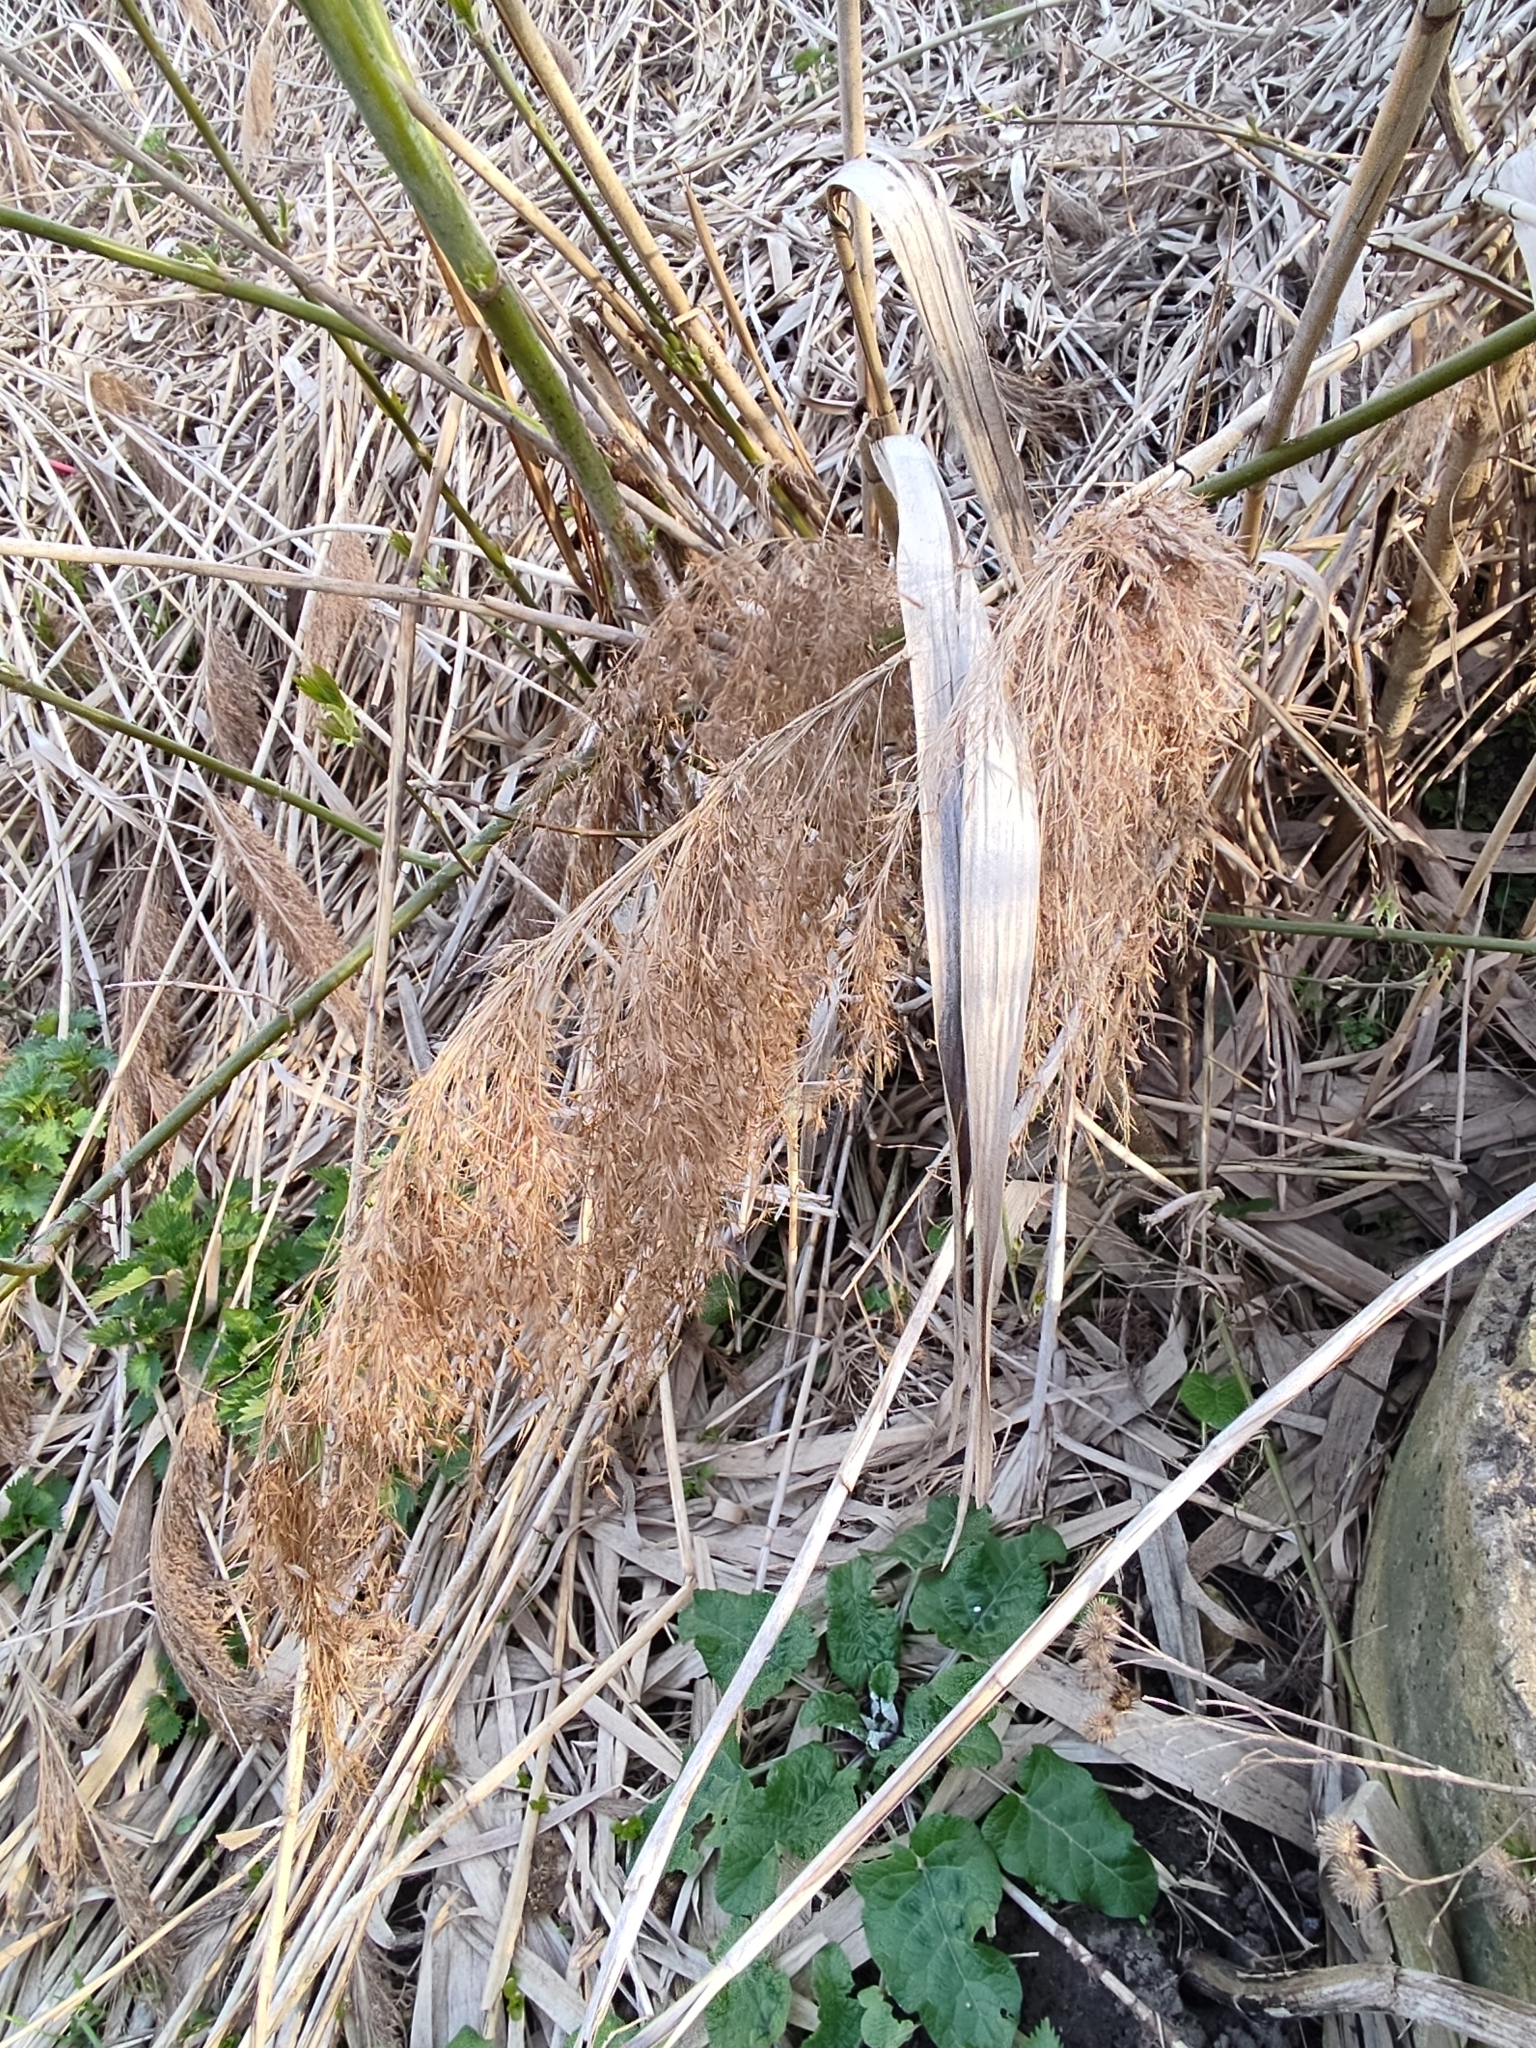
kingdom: Plantae
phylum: Tracheophyta
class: Liliopsida
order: Poales
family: Poaceae
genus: Phragmites
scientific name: Phragmites australis
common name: Common reed
